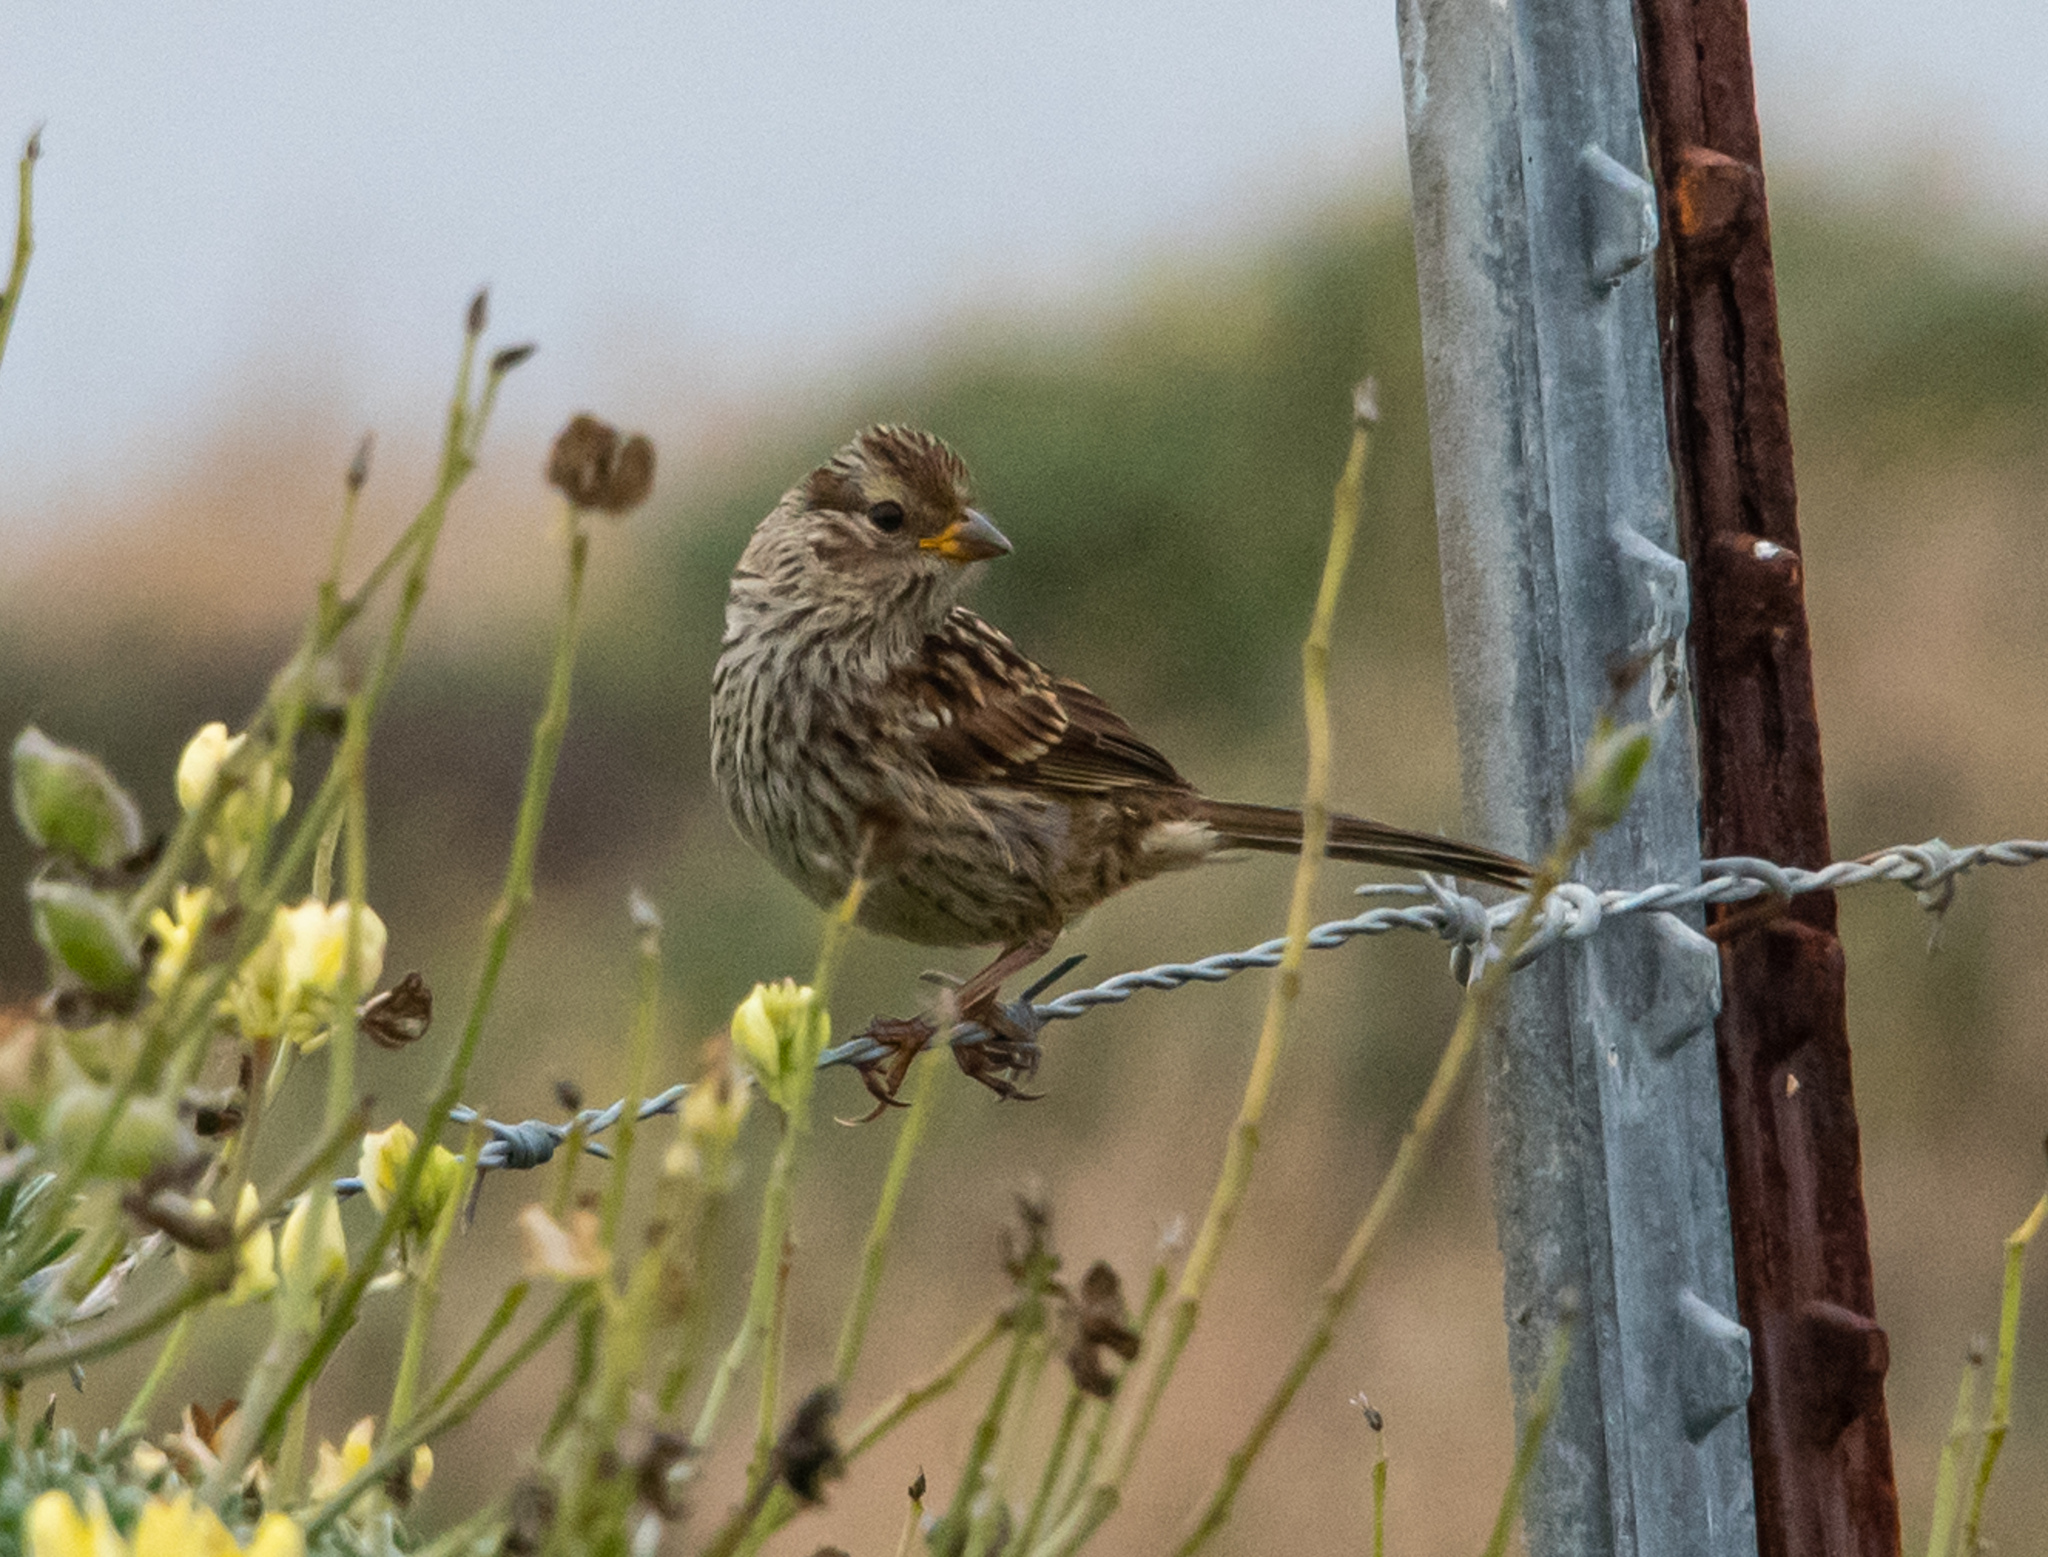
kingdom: Animalia
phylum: Chordata
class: Aves
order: Passeriformes
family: Passerellidae
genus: Zonotrichia
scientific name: Zonotrichia leucophrys
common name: White-crowned sparrow
